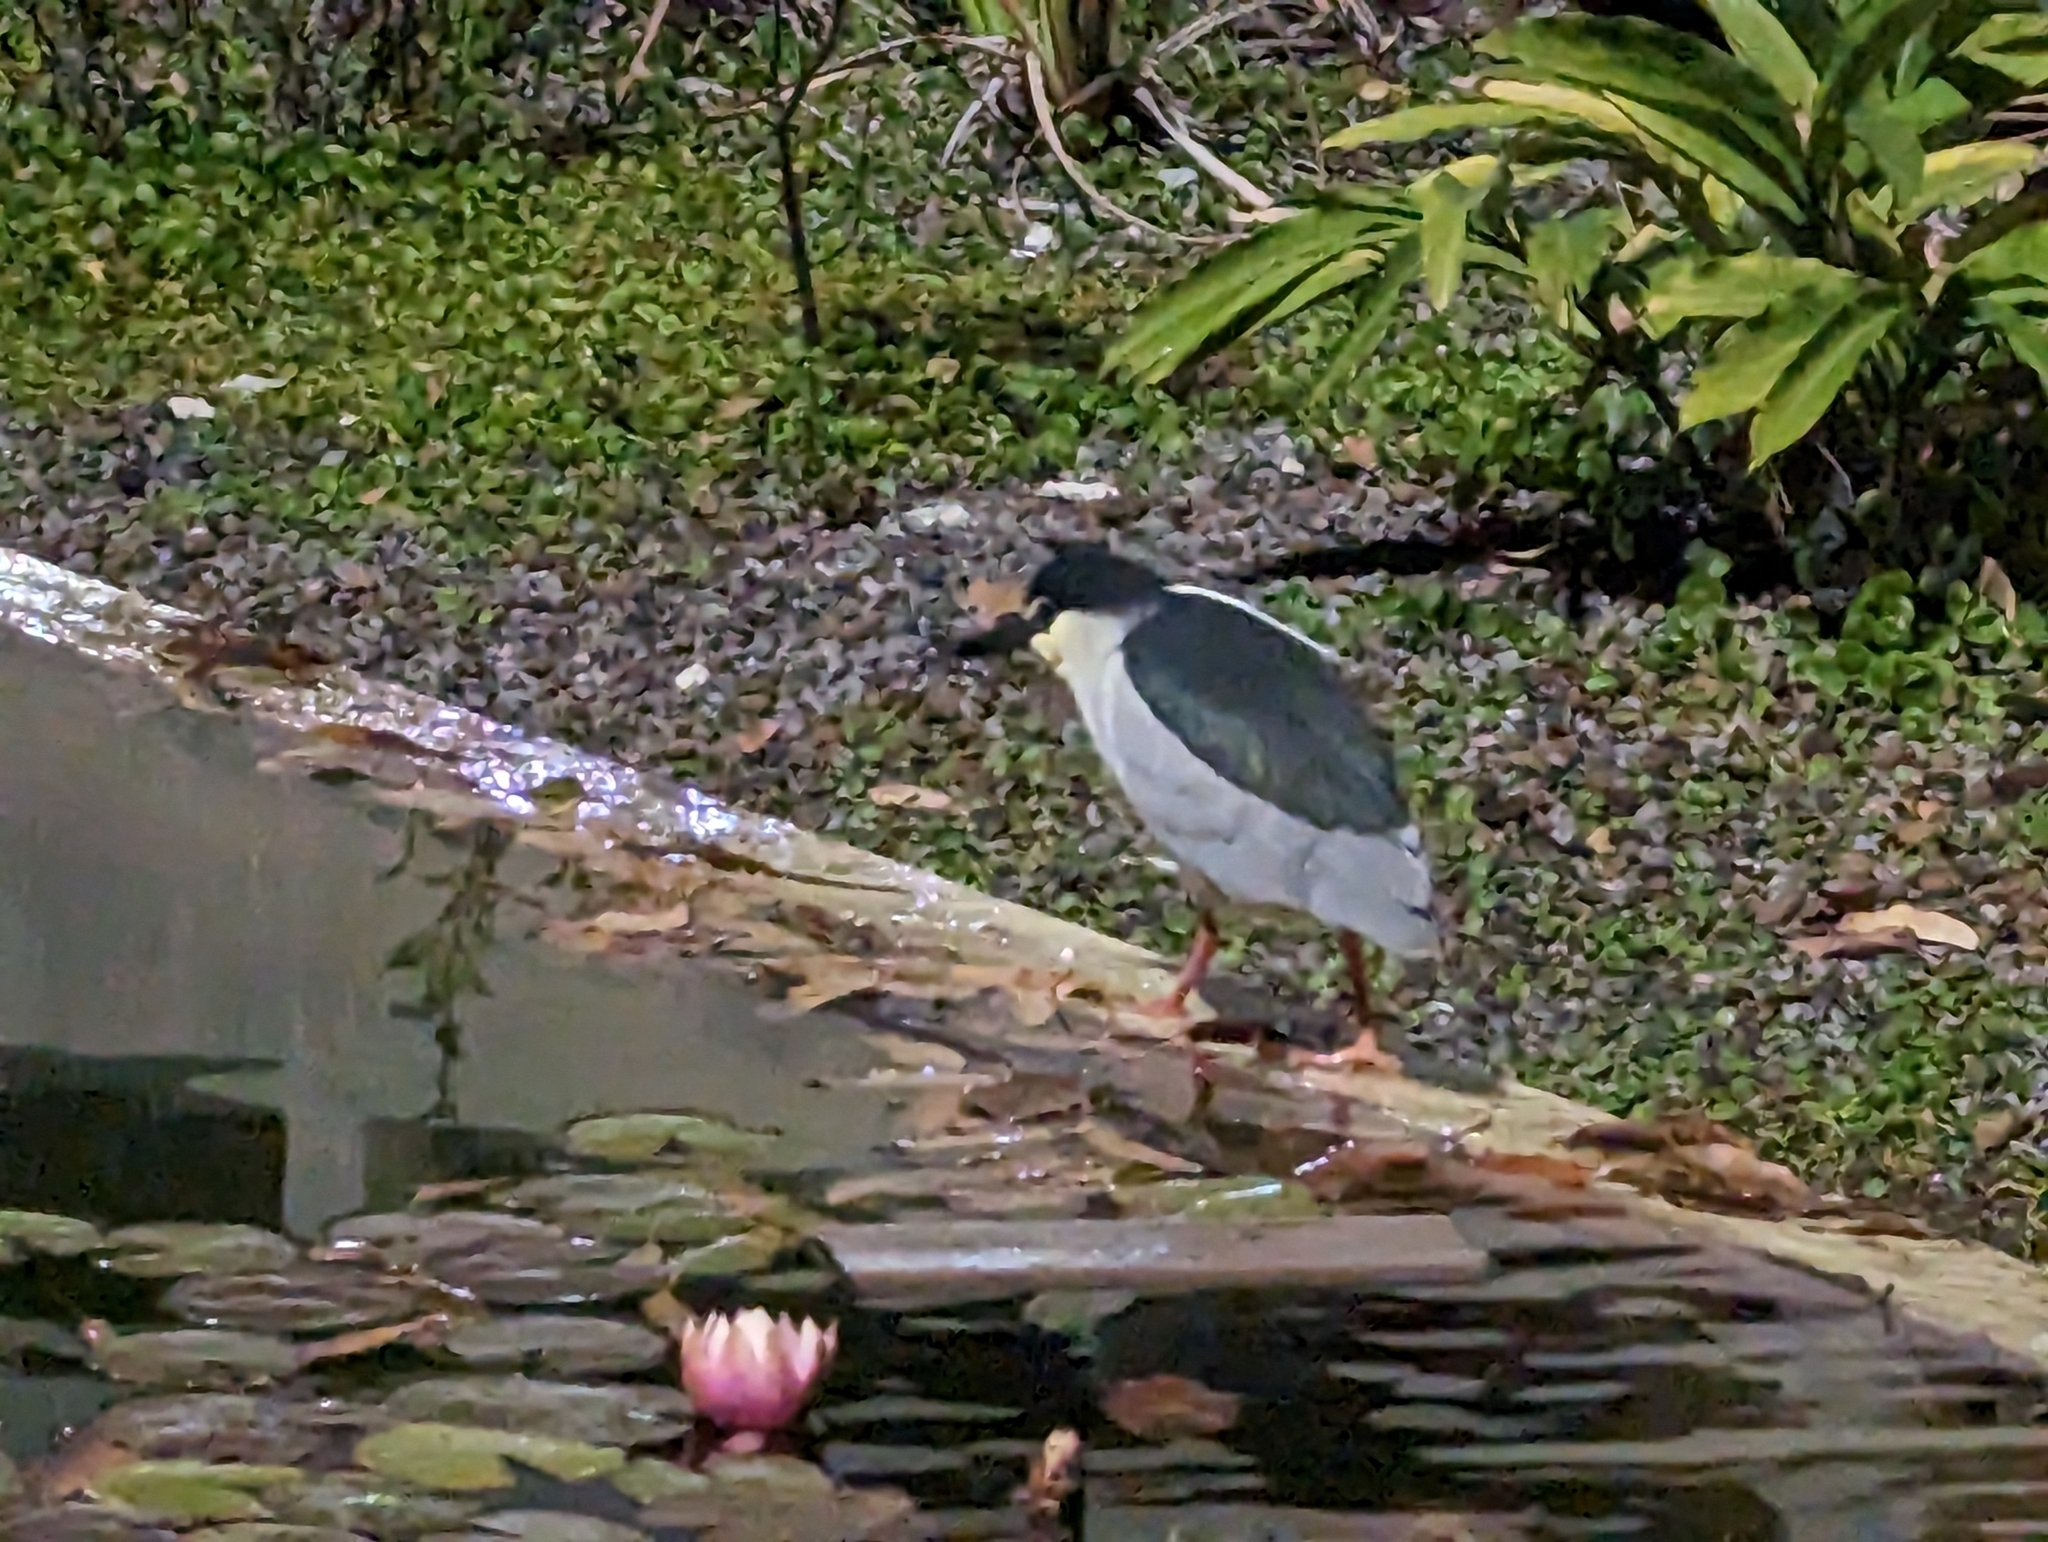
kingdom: Animalia
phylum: Chordata
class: Aves
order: Pelecaniformes
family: Ardeidae
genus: Nycticorax
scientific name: Nycticorax nycticorax
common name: Black-crowned night heron
